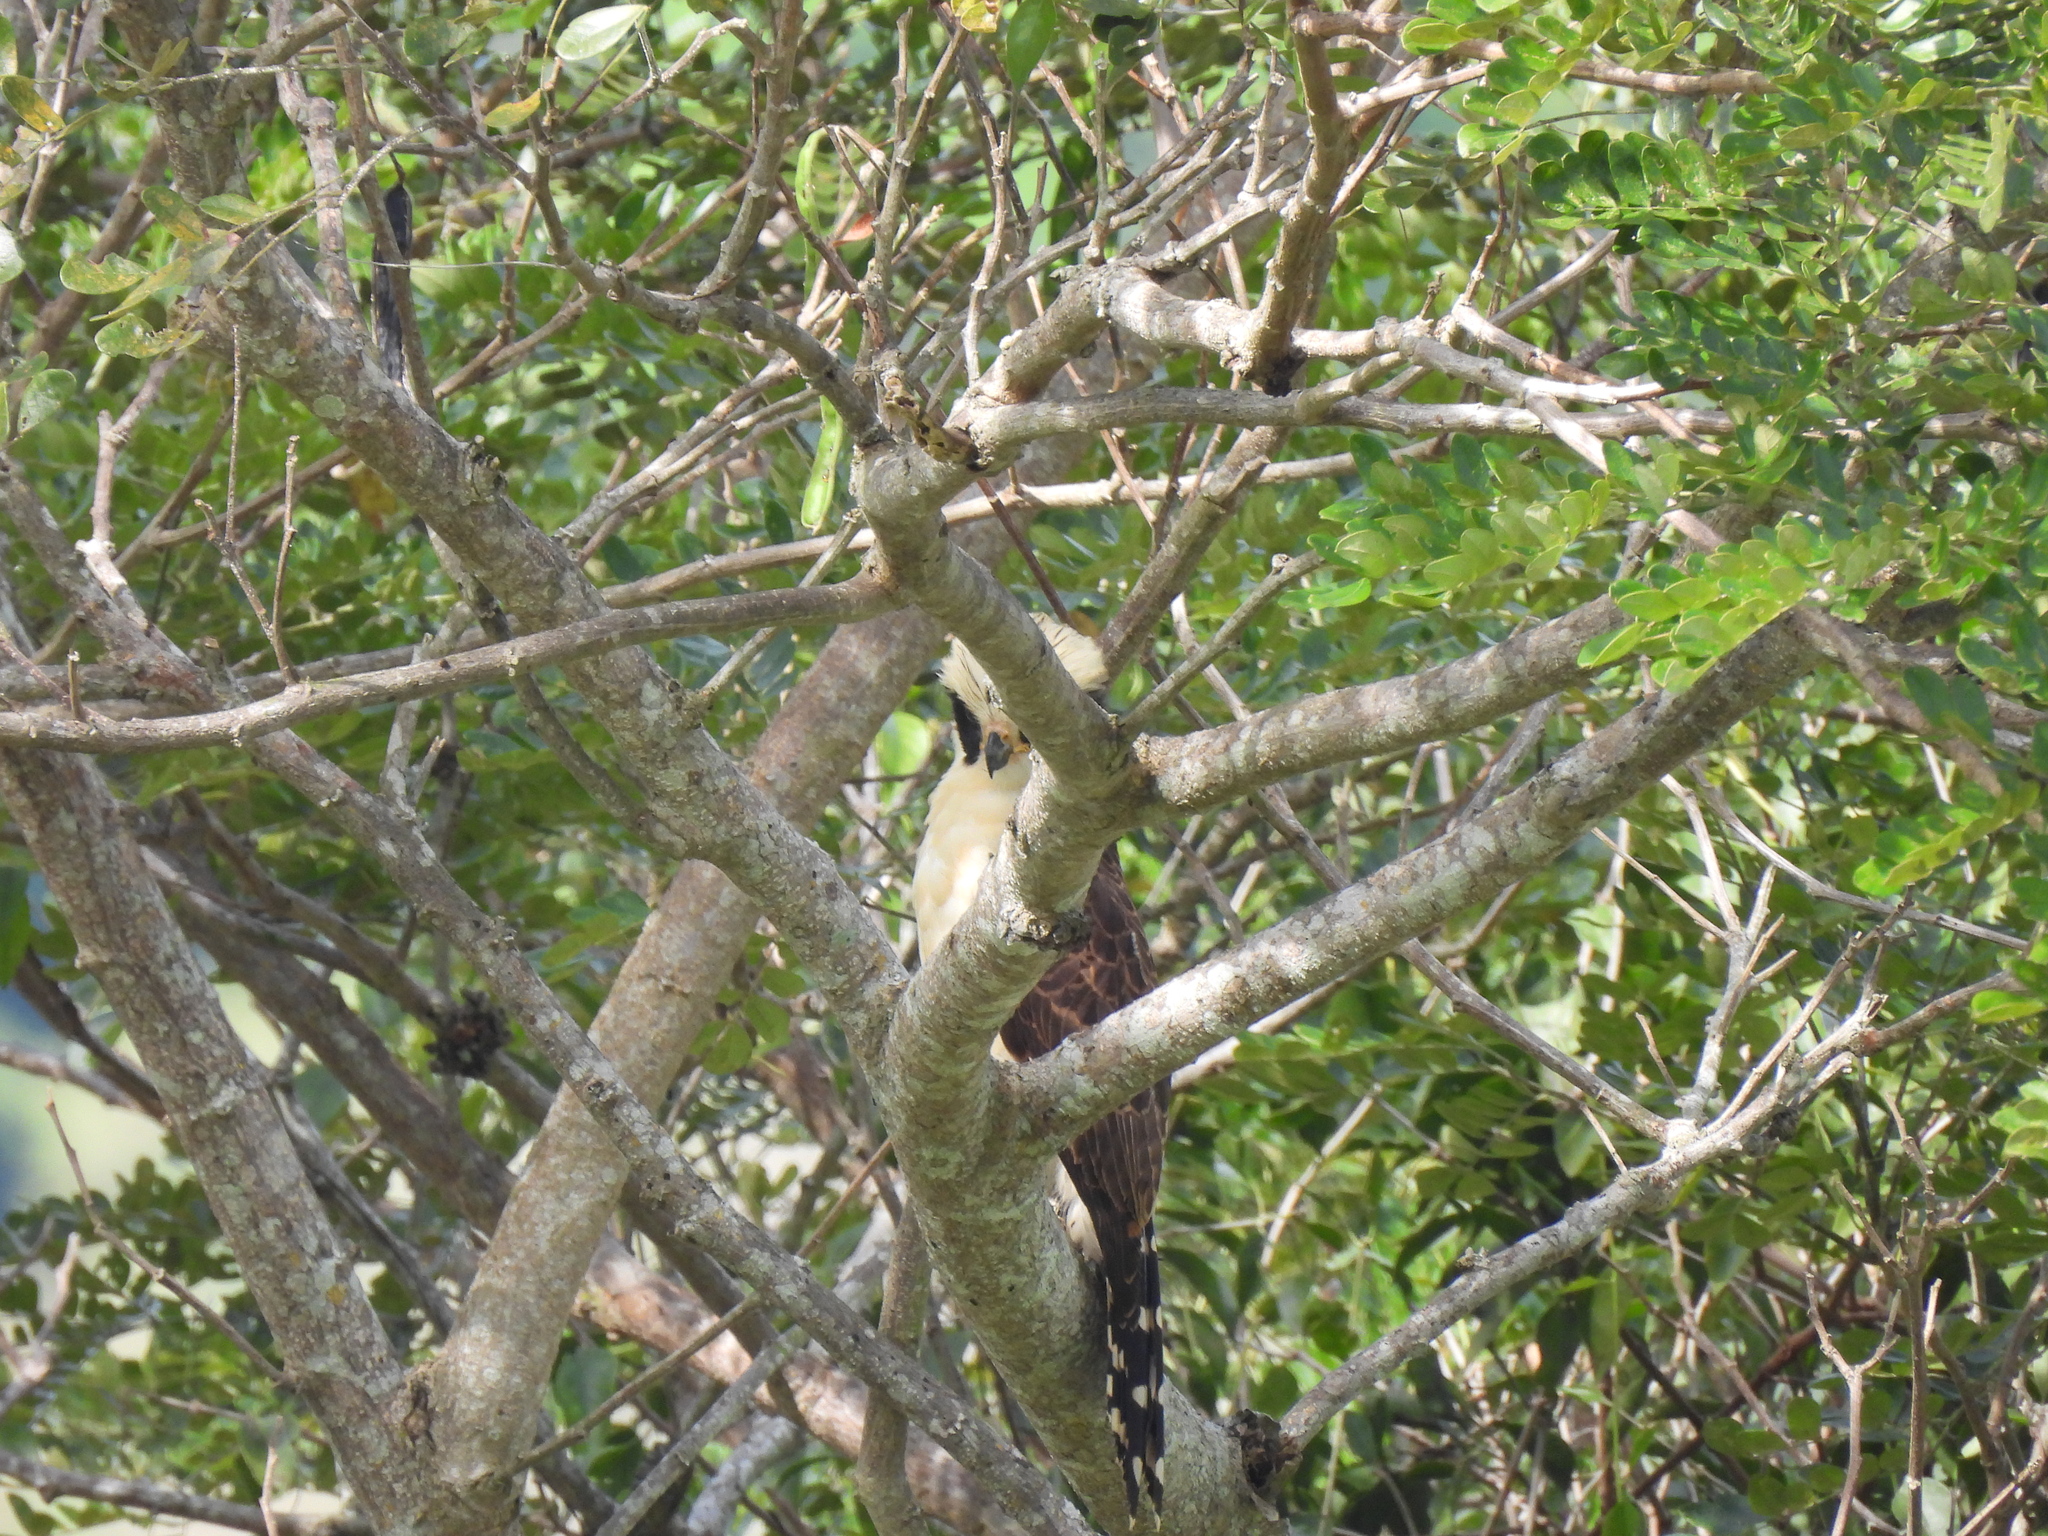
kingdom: Animalia
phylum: Chordata
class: Aves
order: Falconiformes
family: Falconidae
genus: Herpetotheres
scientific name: Herpetotheres cachinnans
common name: Laughing falcon
